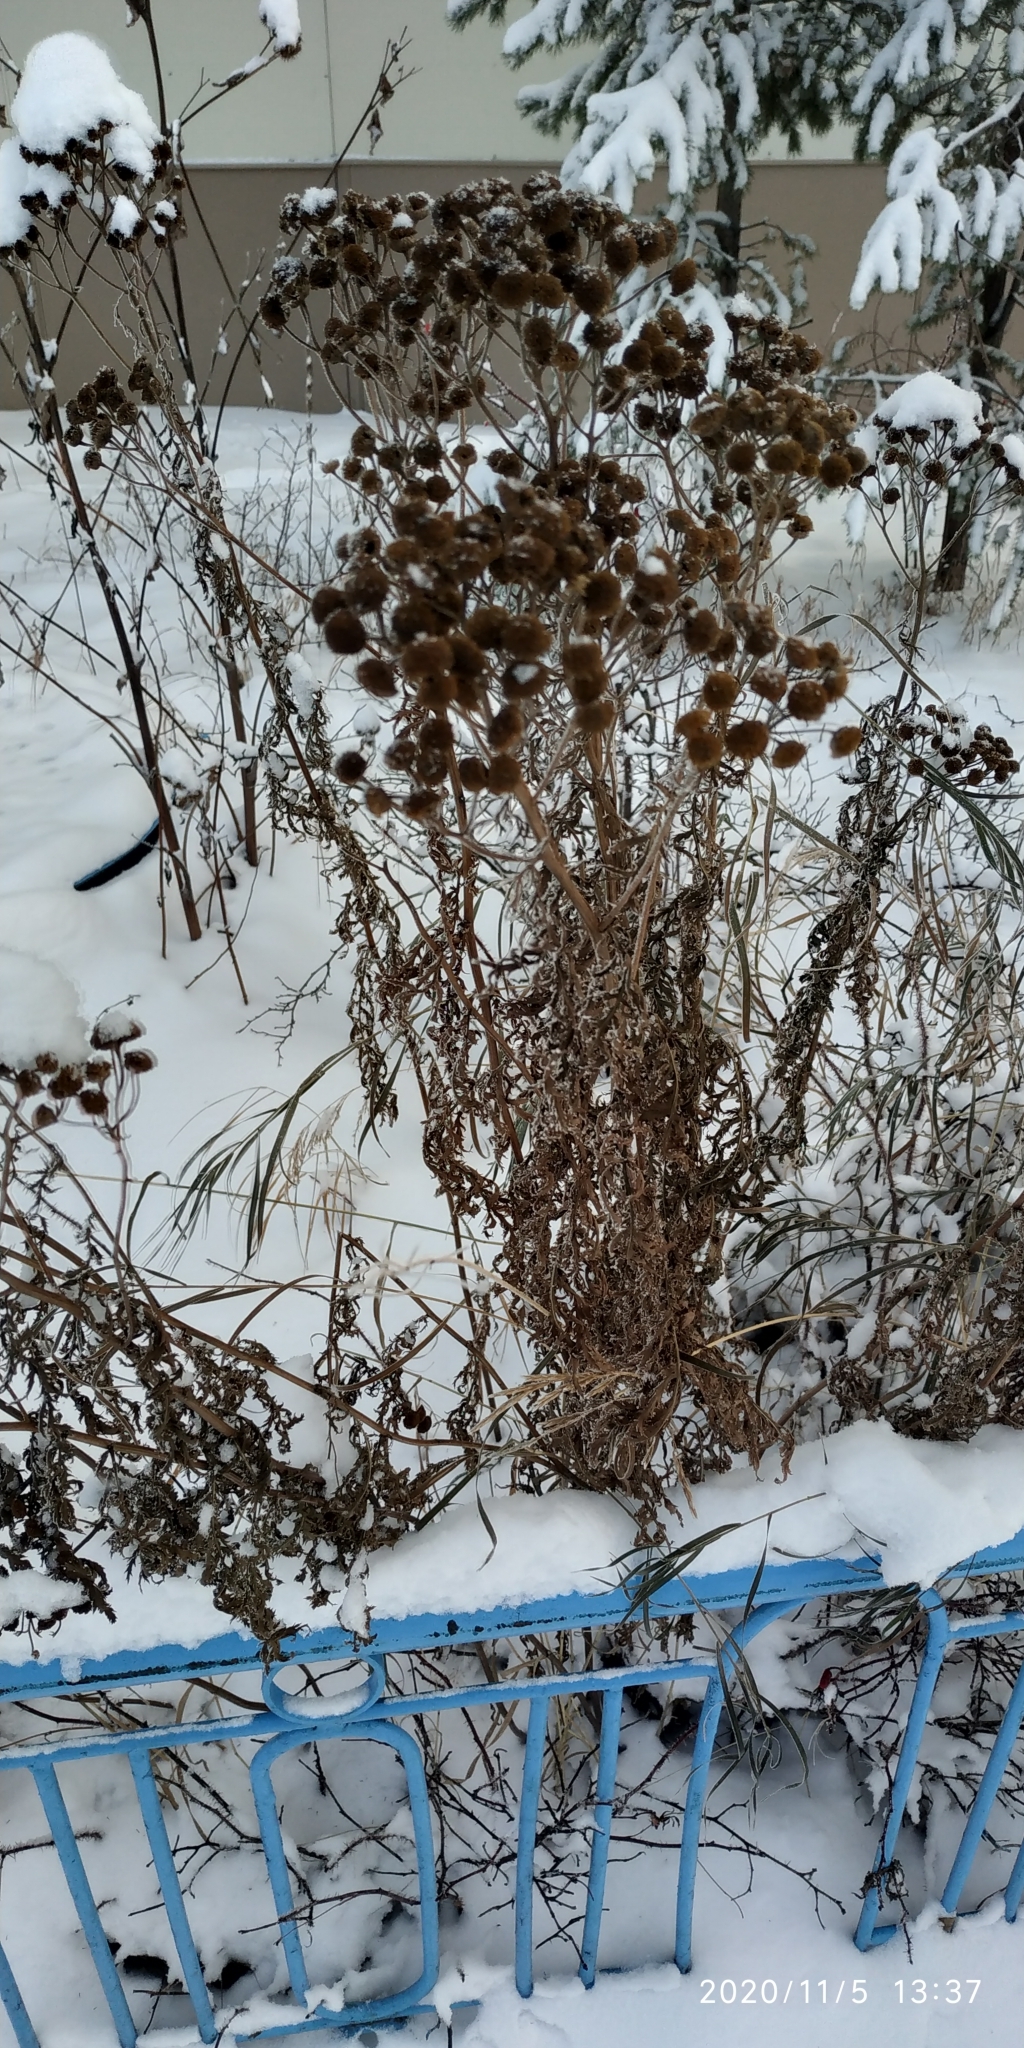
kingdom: Plantae
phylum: Tracheophyta
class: Magnoliopsida
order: Asterales
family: Asteraceae
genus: Tanacetum
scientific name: Tanacetum vulgare
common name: Common tansy
